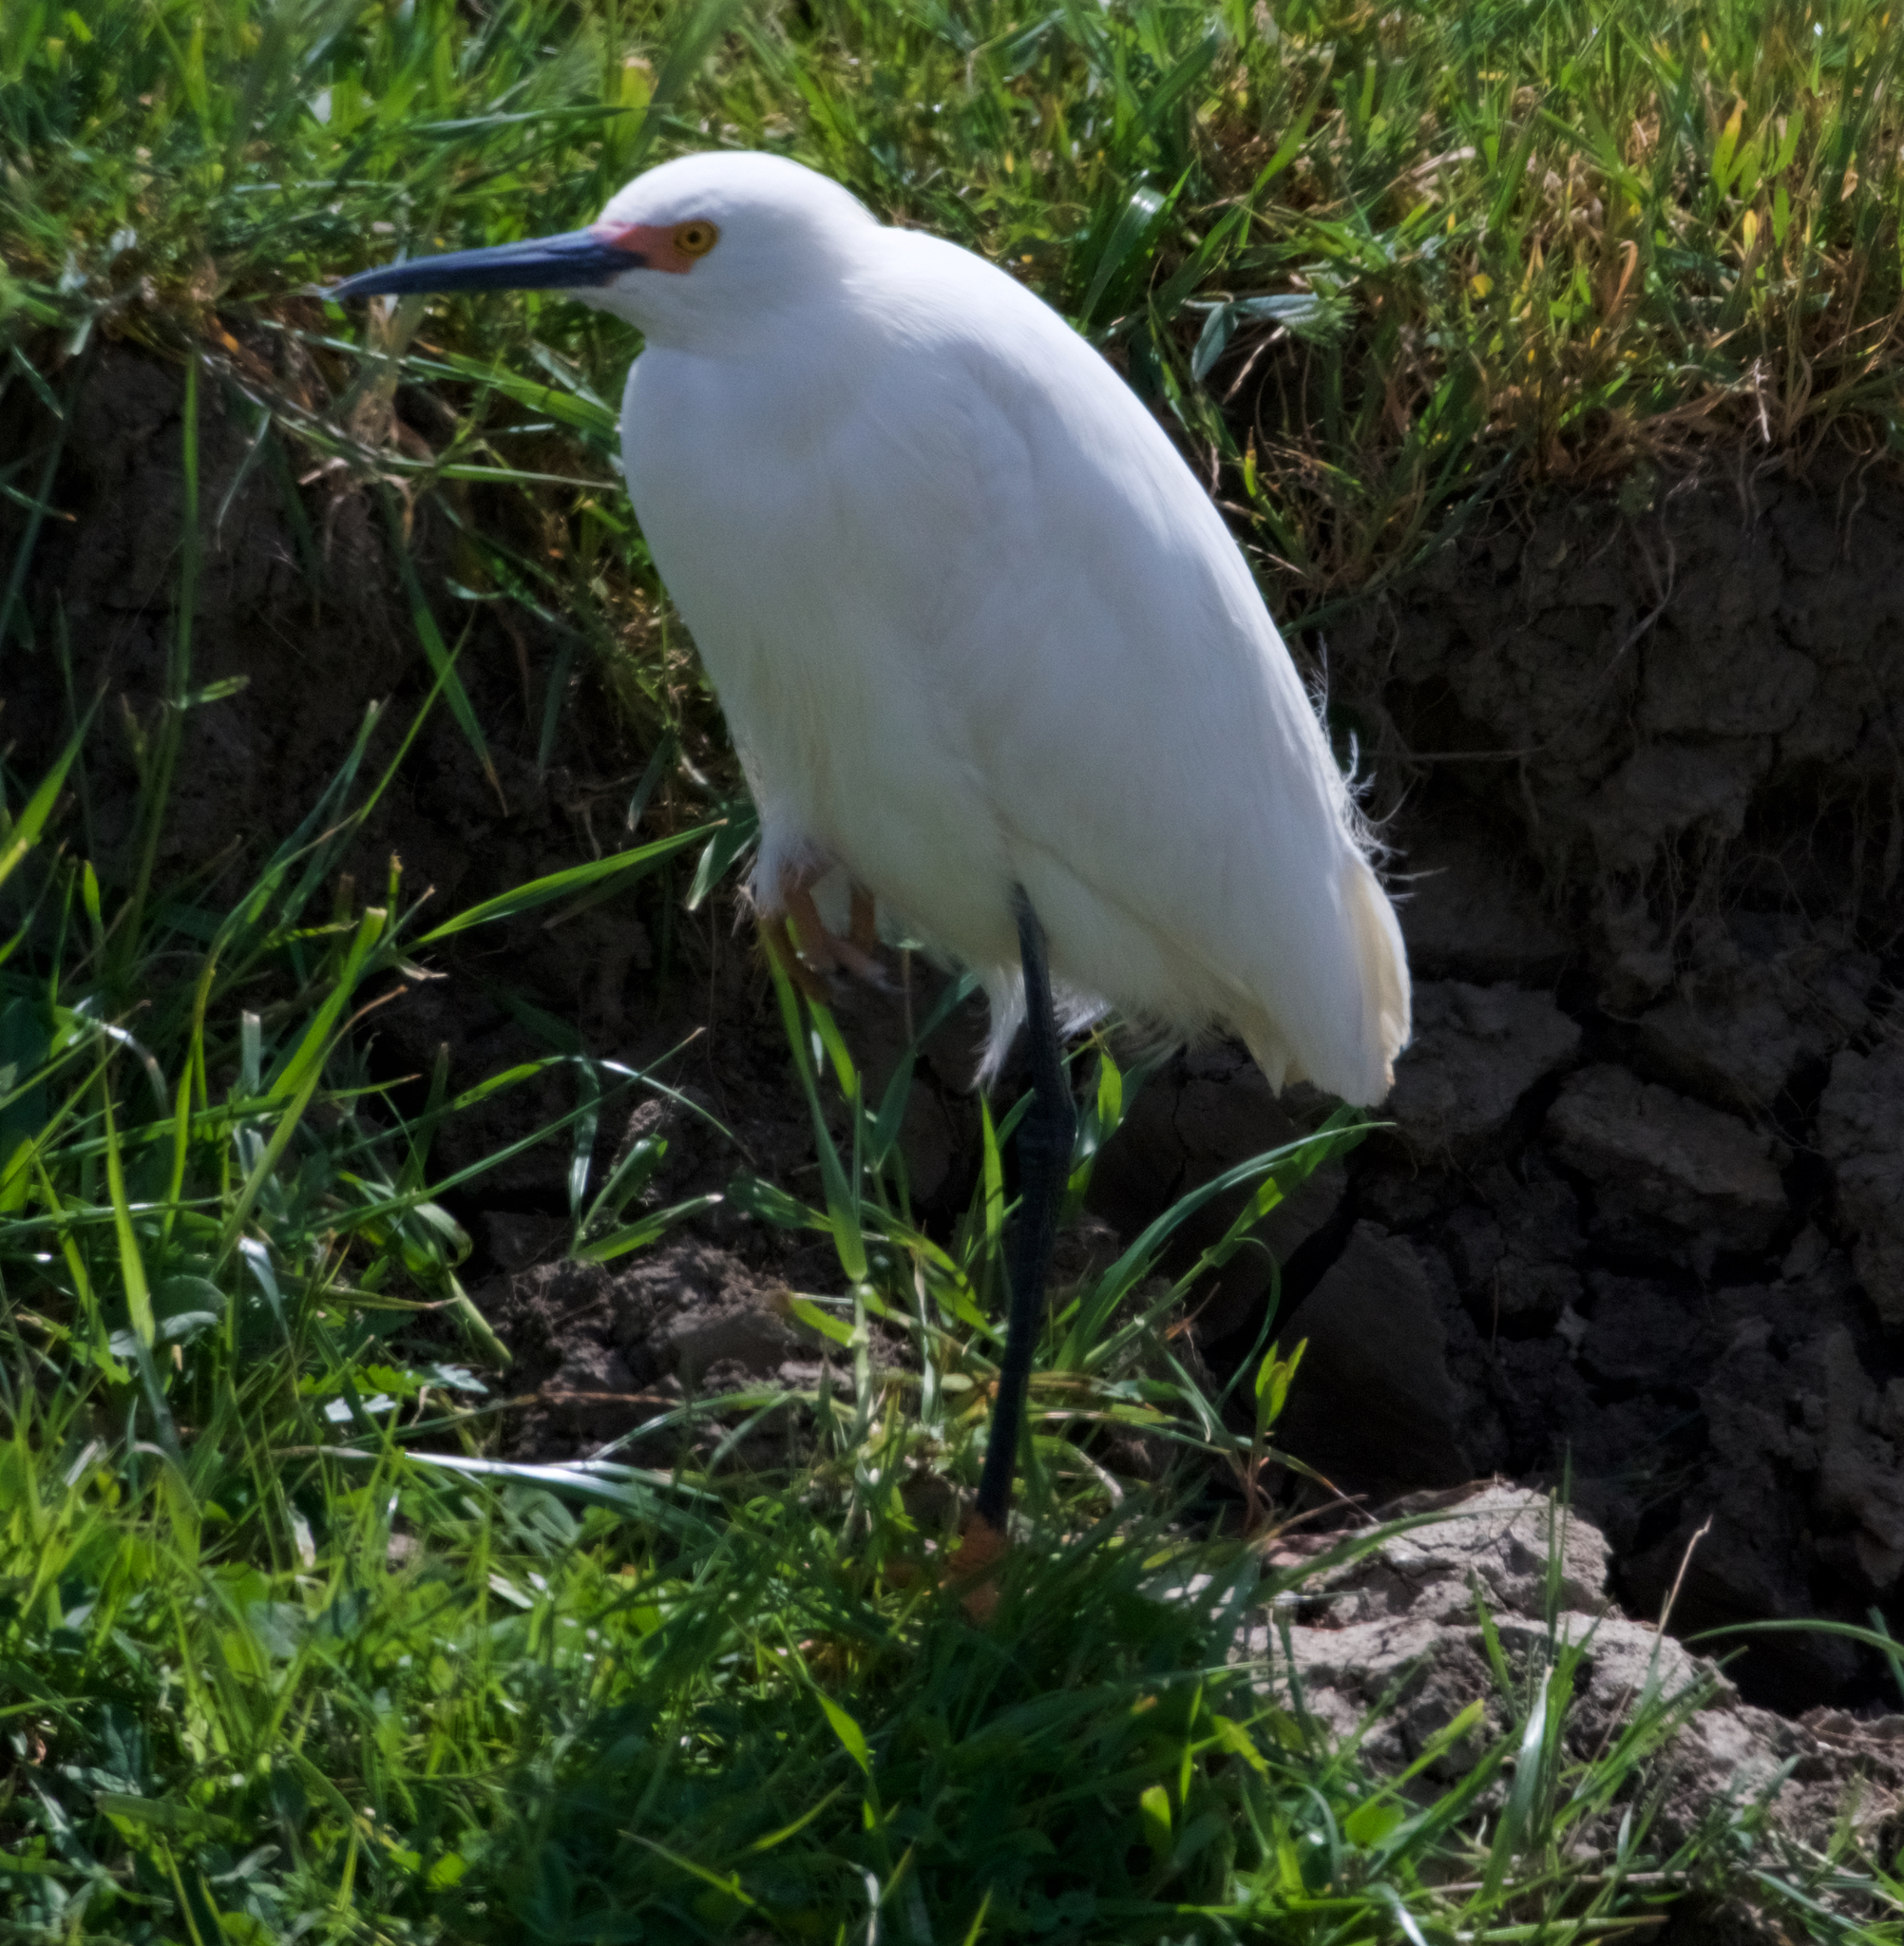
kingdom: Animalia
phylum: Chordata
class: Aves
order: Pelecaniformes
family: Ardeidae
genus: Egretta
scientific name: Egretta thula
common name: Snowy egret
